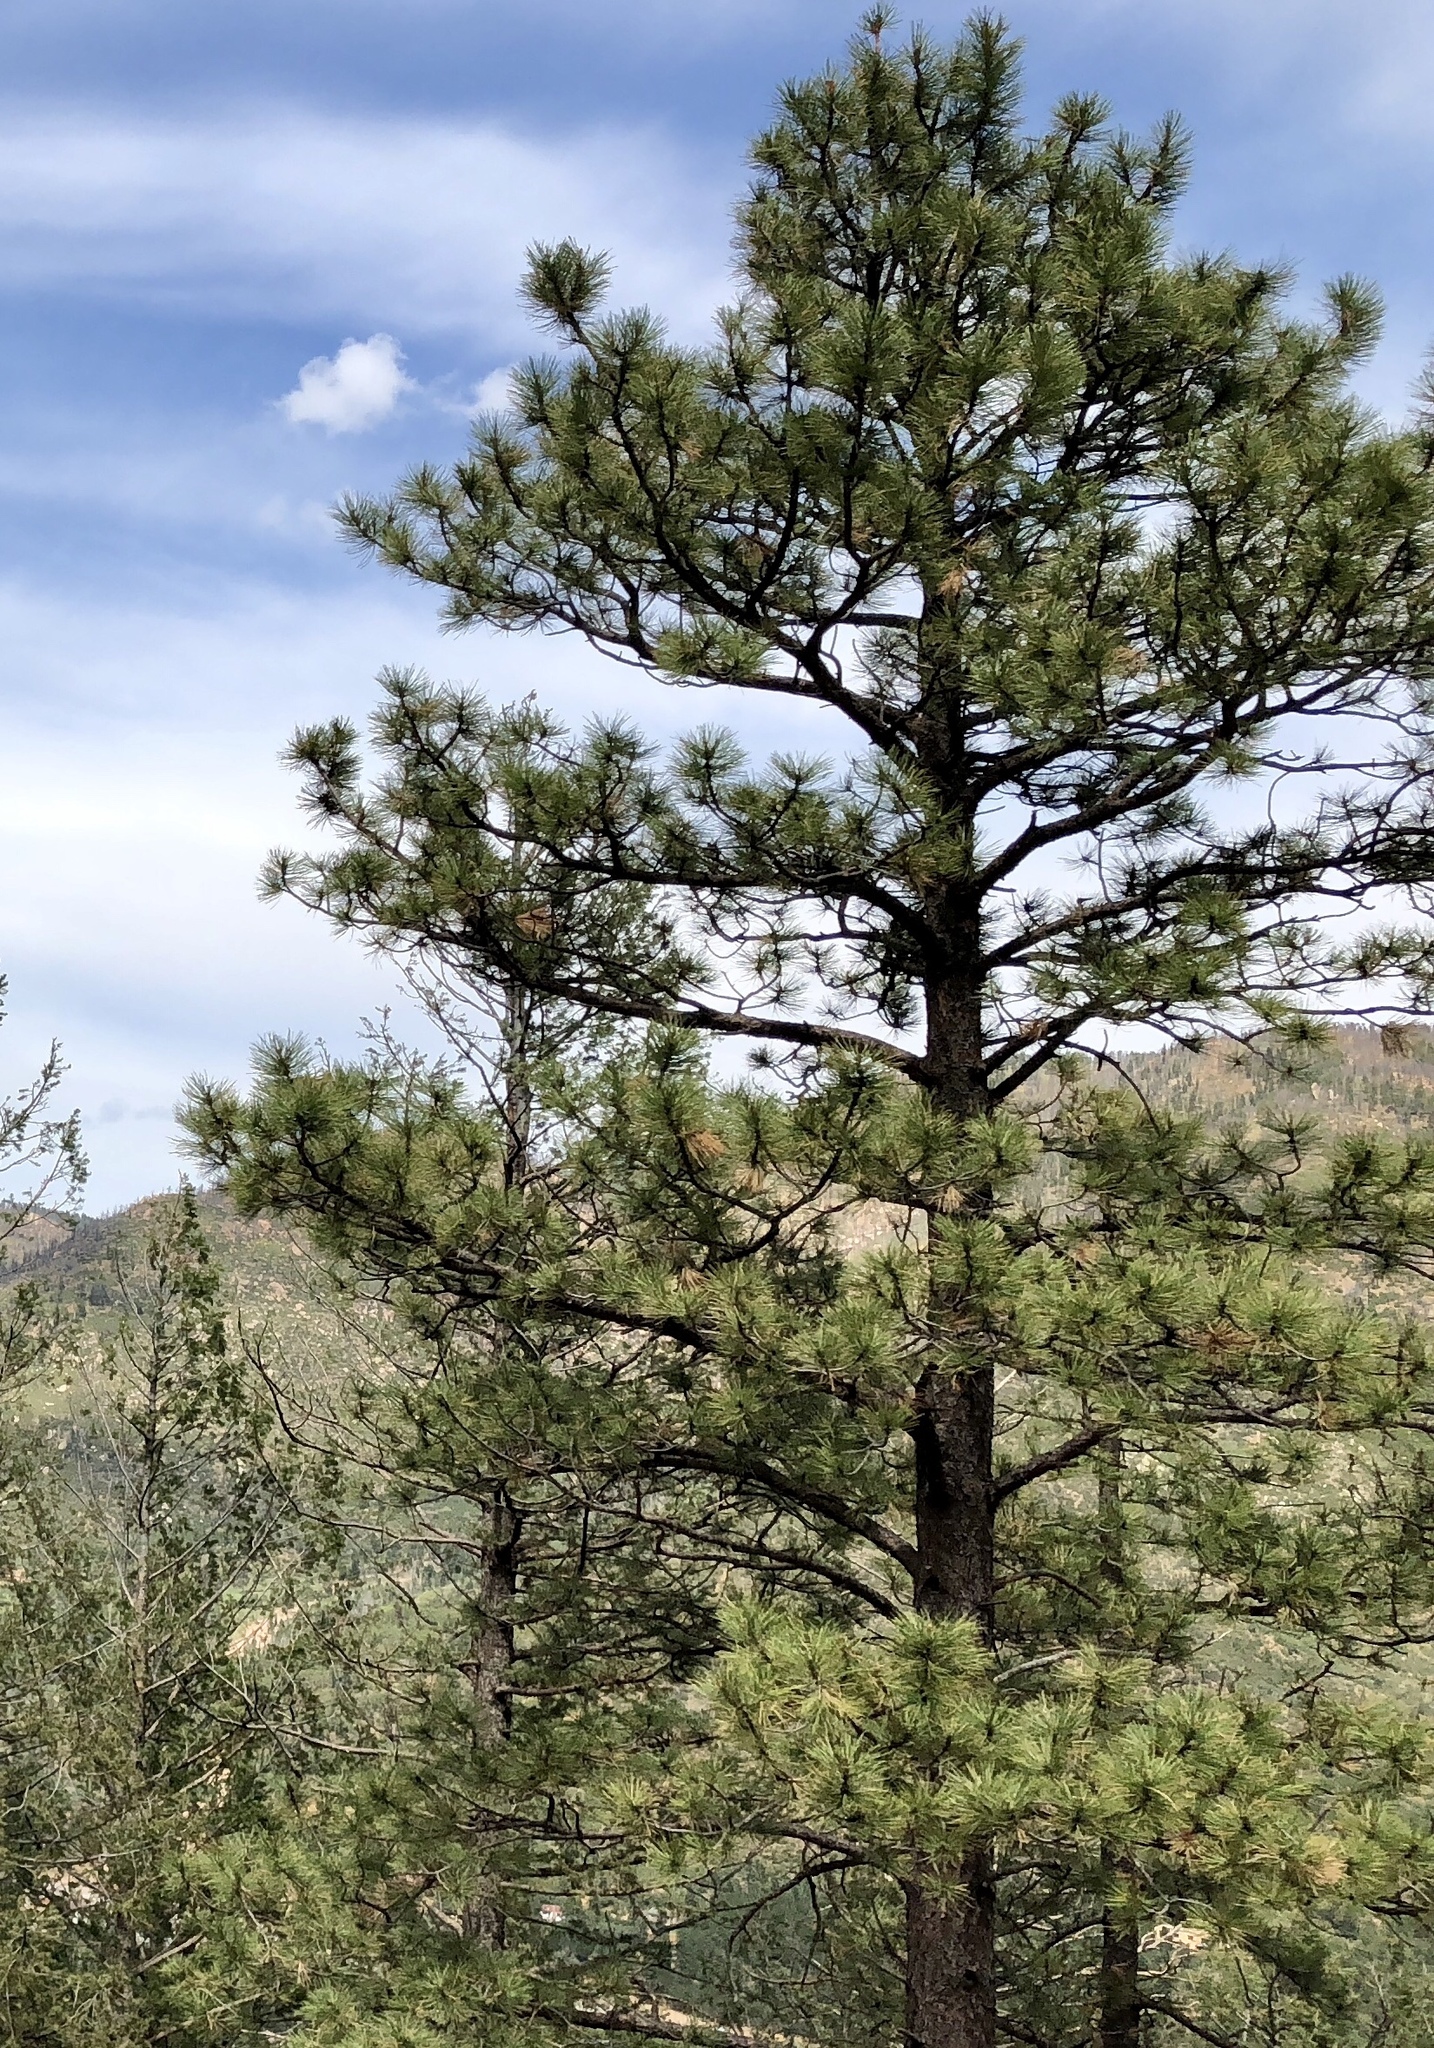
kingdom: Plantae
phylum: Tracheophyta
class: Pinopsida
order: Pinales
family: Pinaceae
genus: Pinus
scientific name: Pinus ponderosa
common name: Western yellow-pine
